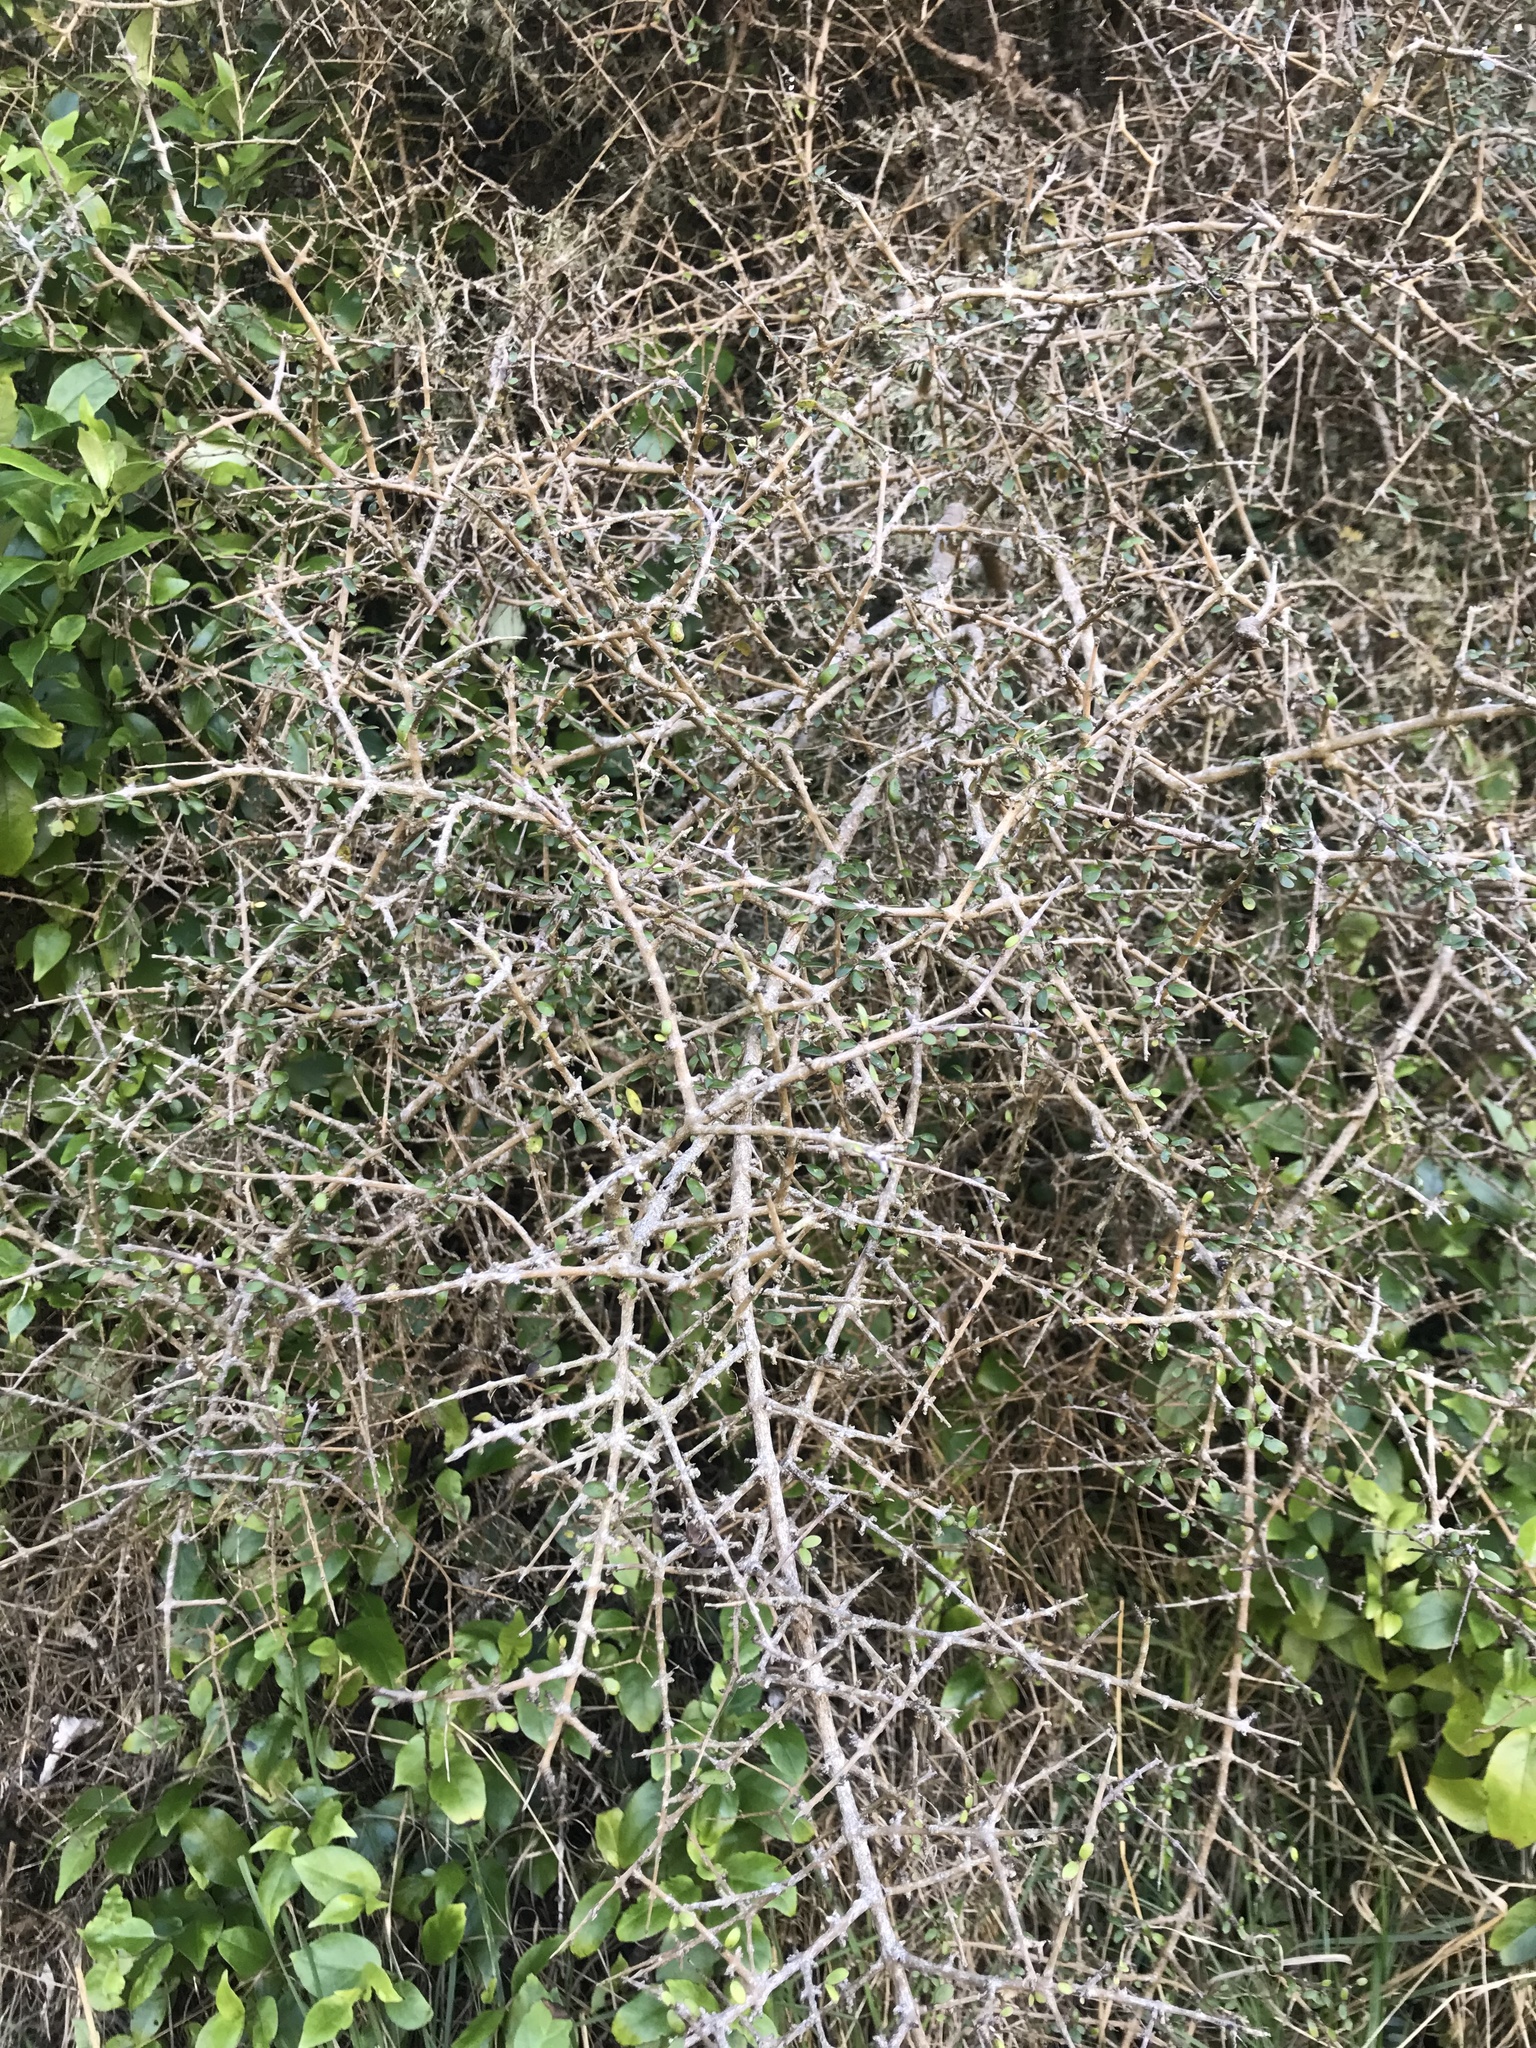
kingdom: Plantae
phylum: Tracheophyta
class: Magnoliopsida
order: Gentianales
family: Rubiaceae
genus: Coprosma
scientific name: Coprosma propinqua
